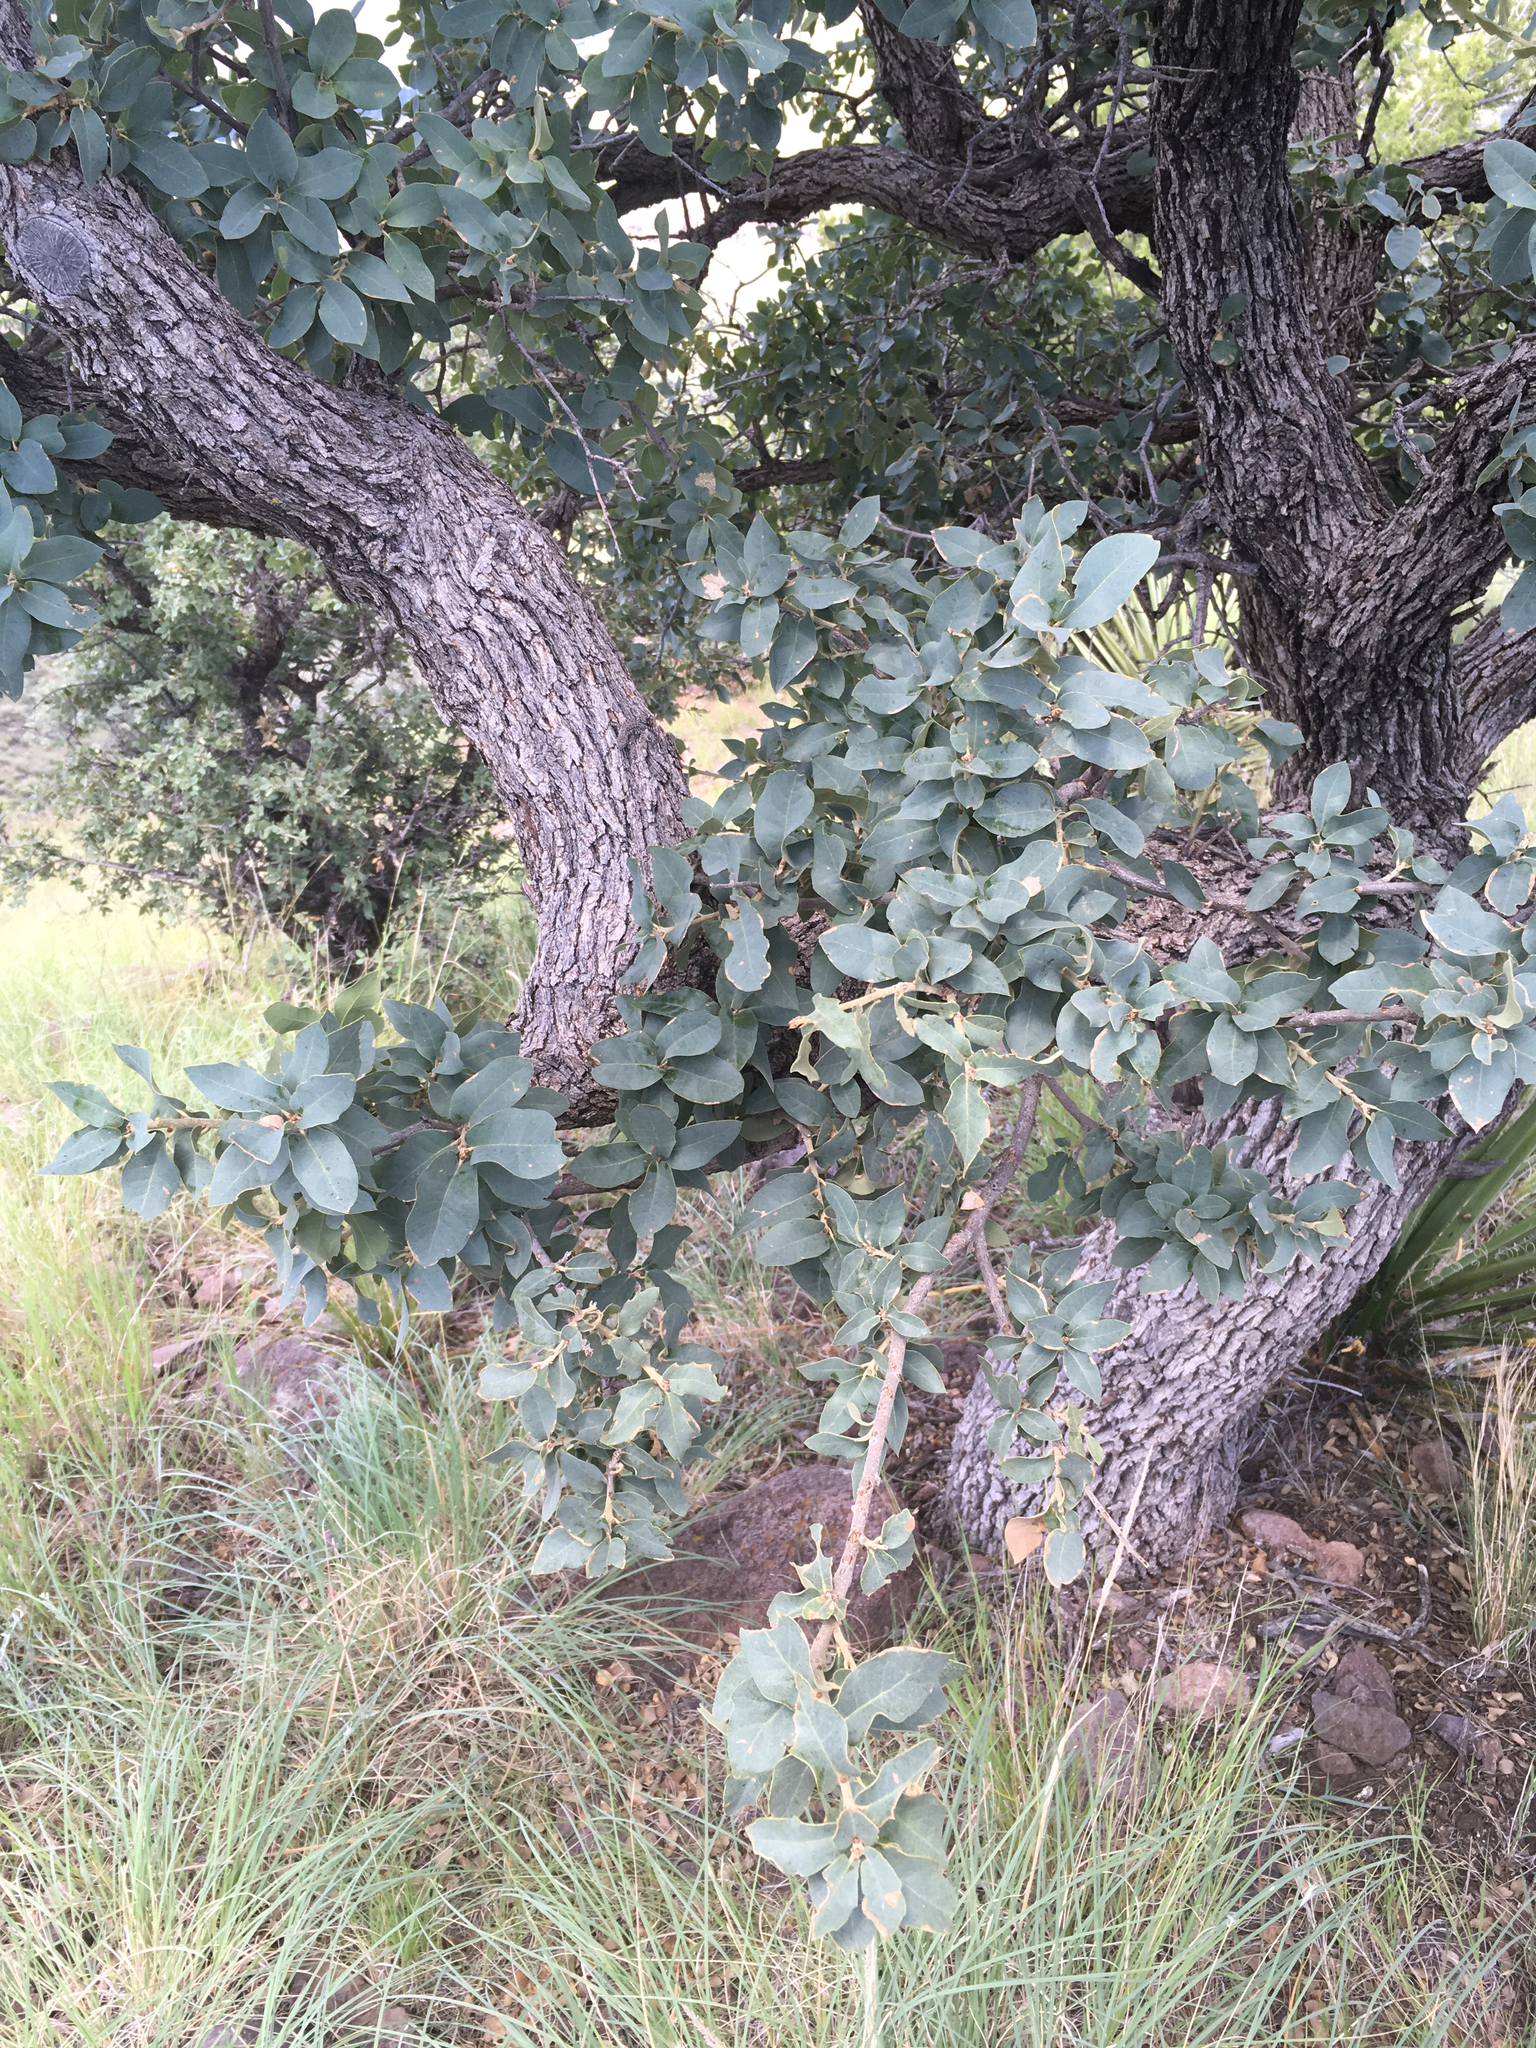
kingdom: Plantae
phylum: Tracheophyta
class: Magnoliopsida
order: Fagales
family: Fagaceae
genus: Quercus
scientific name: Quercus grisea
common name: Gray oak
